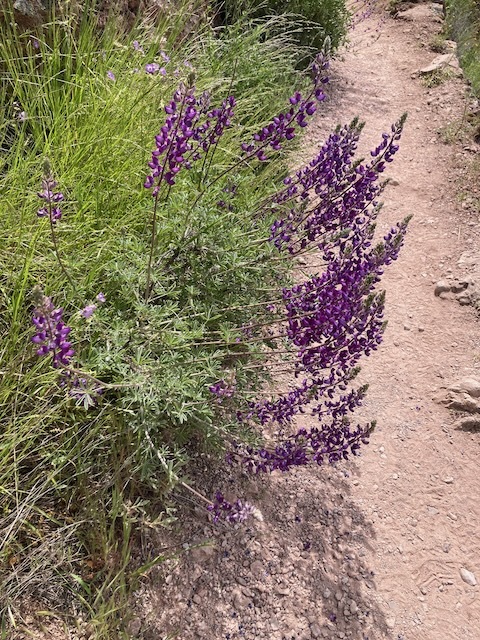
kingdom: Plantae
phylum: Tracheophyta
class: Magnoliopsida
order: Fabales
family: Fabaceae
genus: Lupinus
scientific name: Lupinus albifrons
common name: Foothill lupine
